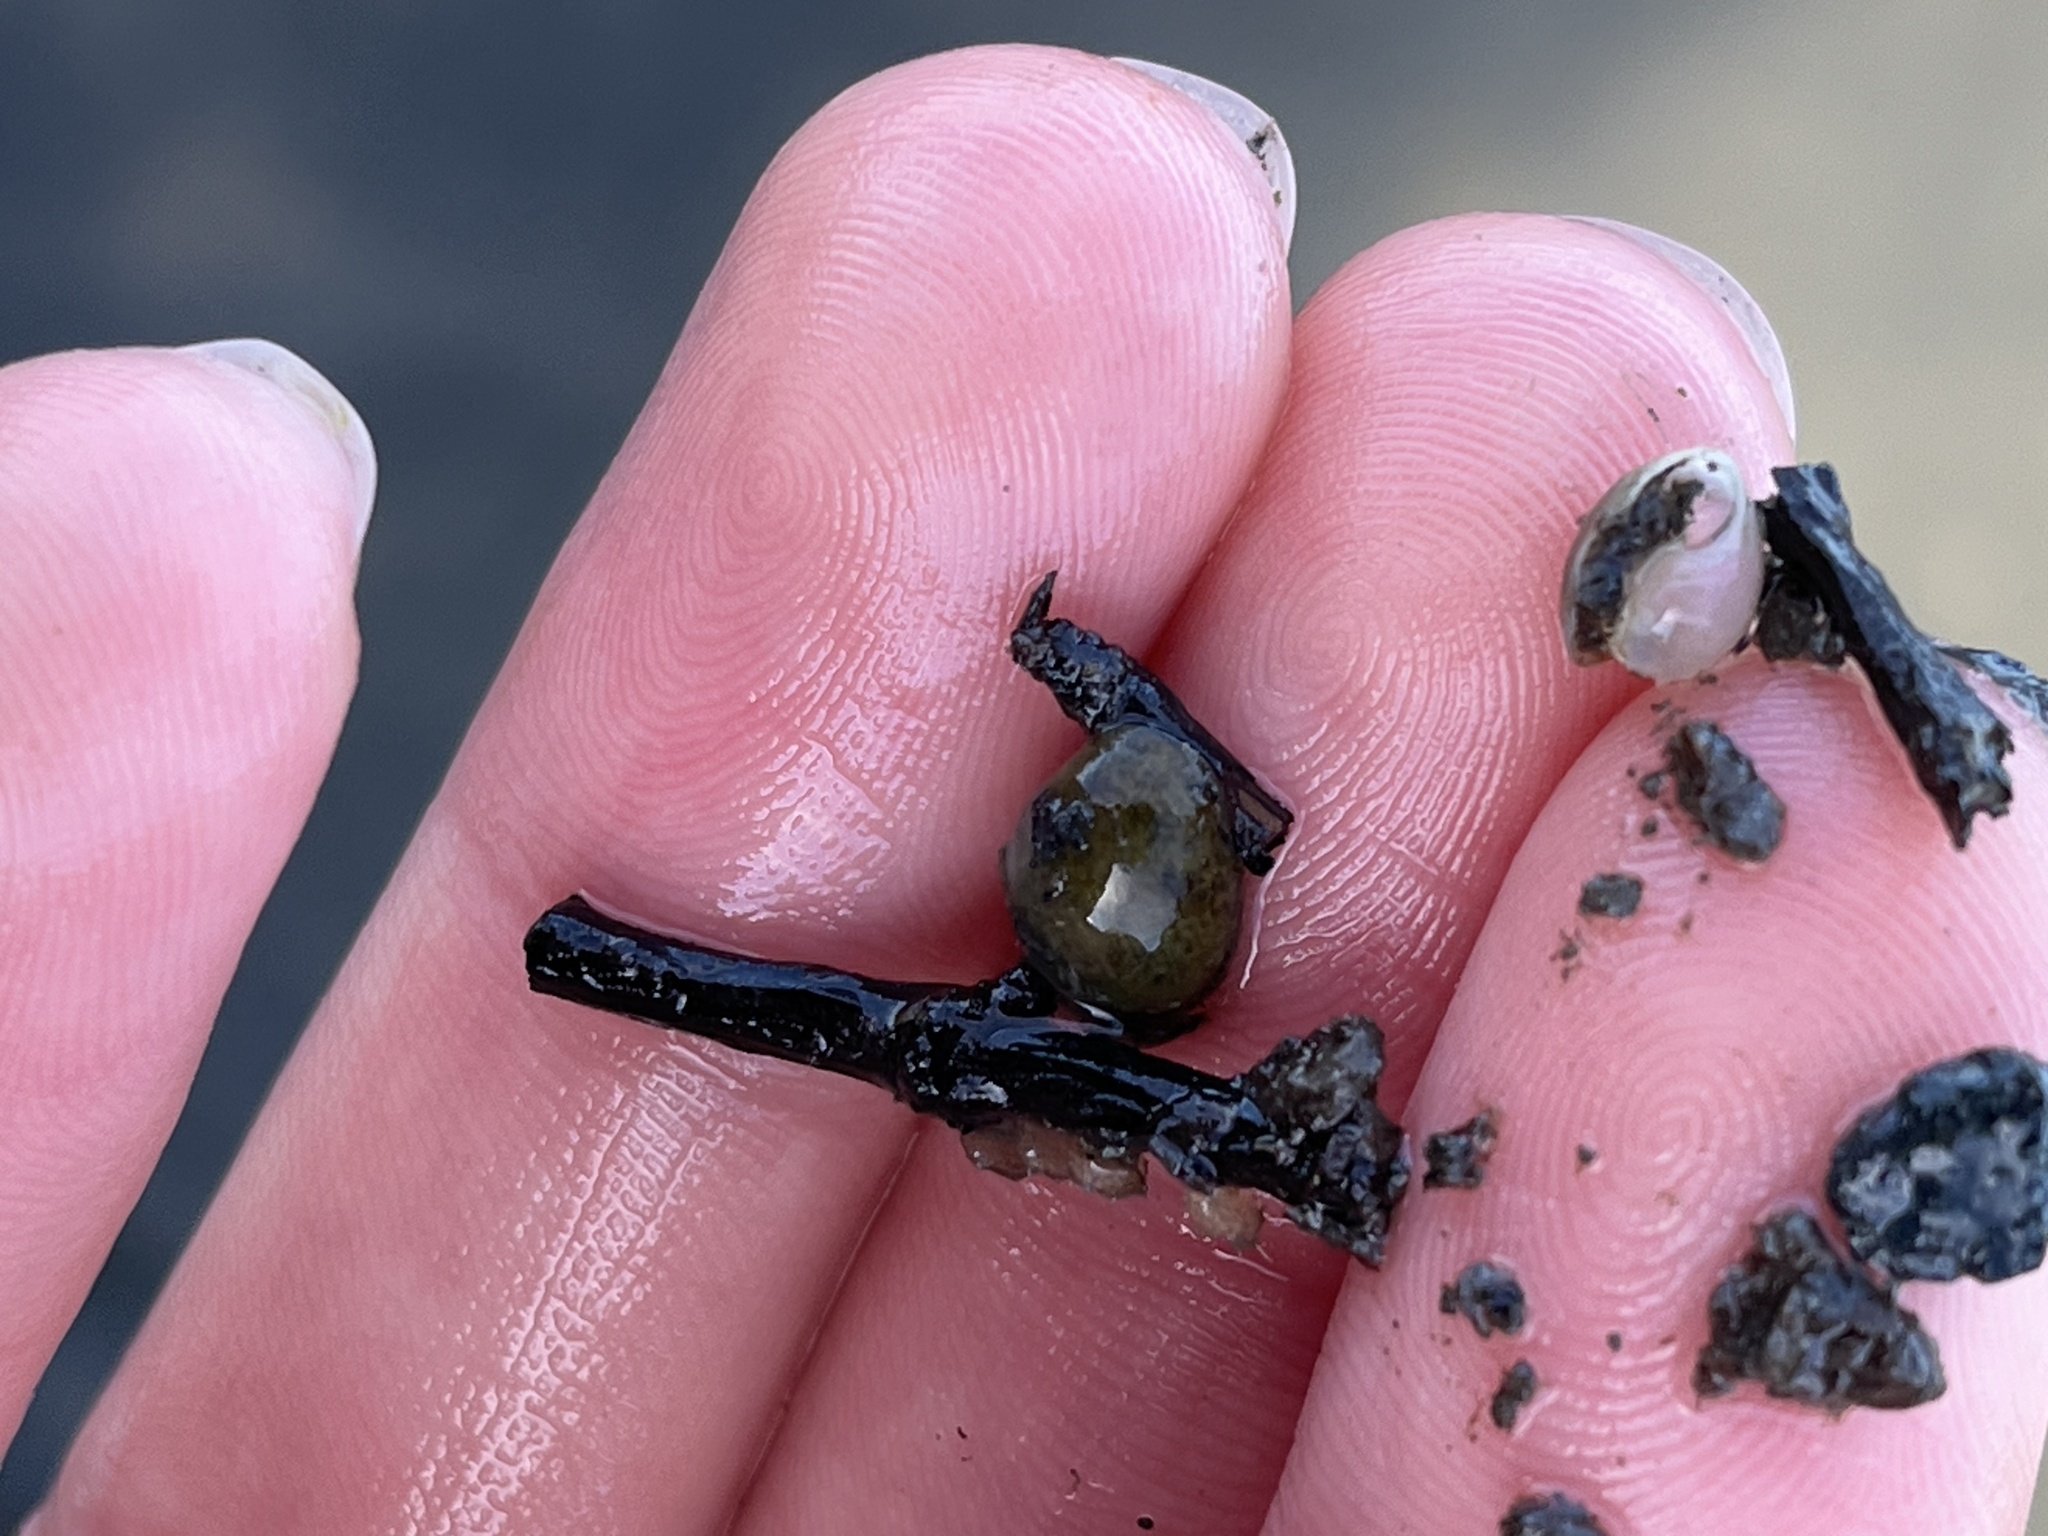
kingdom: Animalia
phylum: Mollusca
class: Gastropoda
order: Cephalaspidea
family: Haminoeidae
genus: Haloa
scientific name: Haloa japonica
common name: Japanese bubble snail
